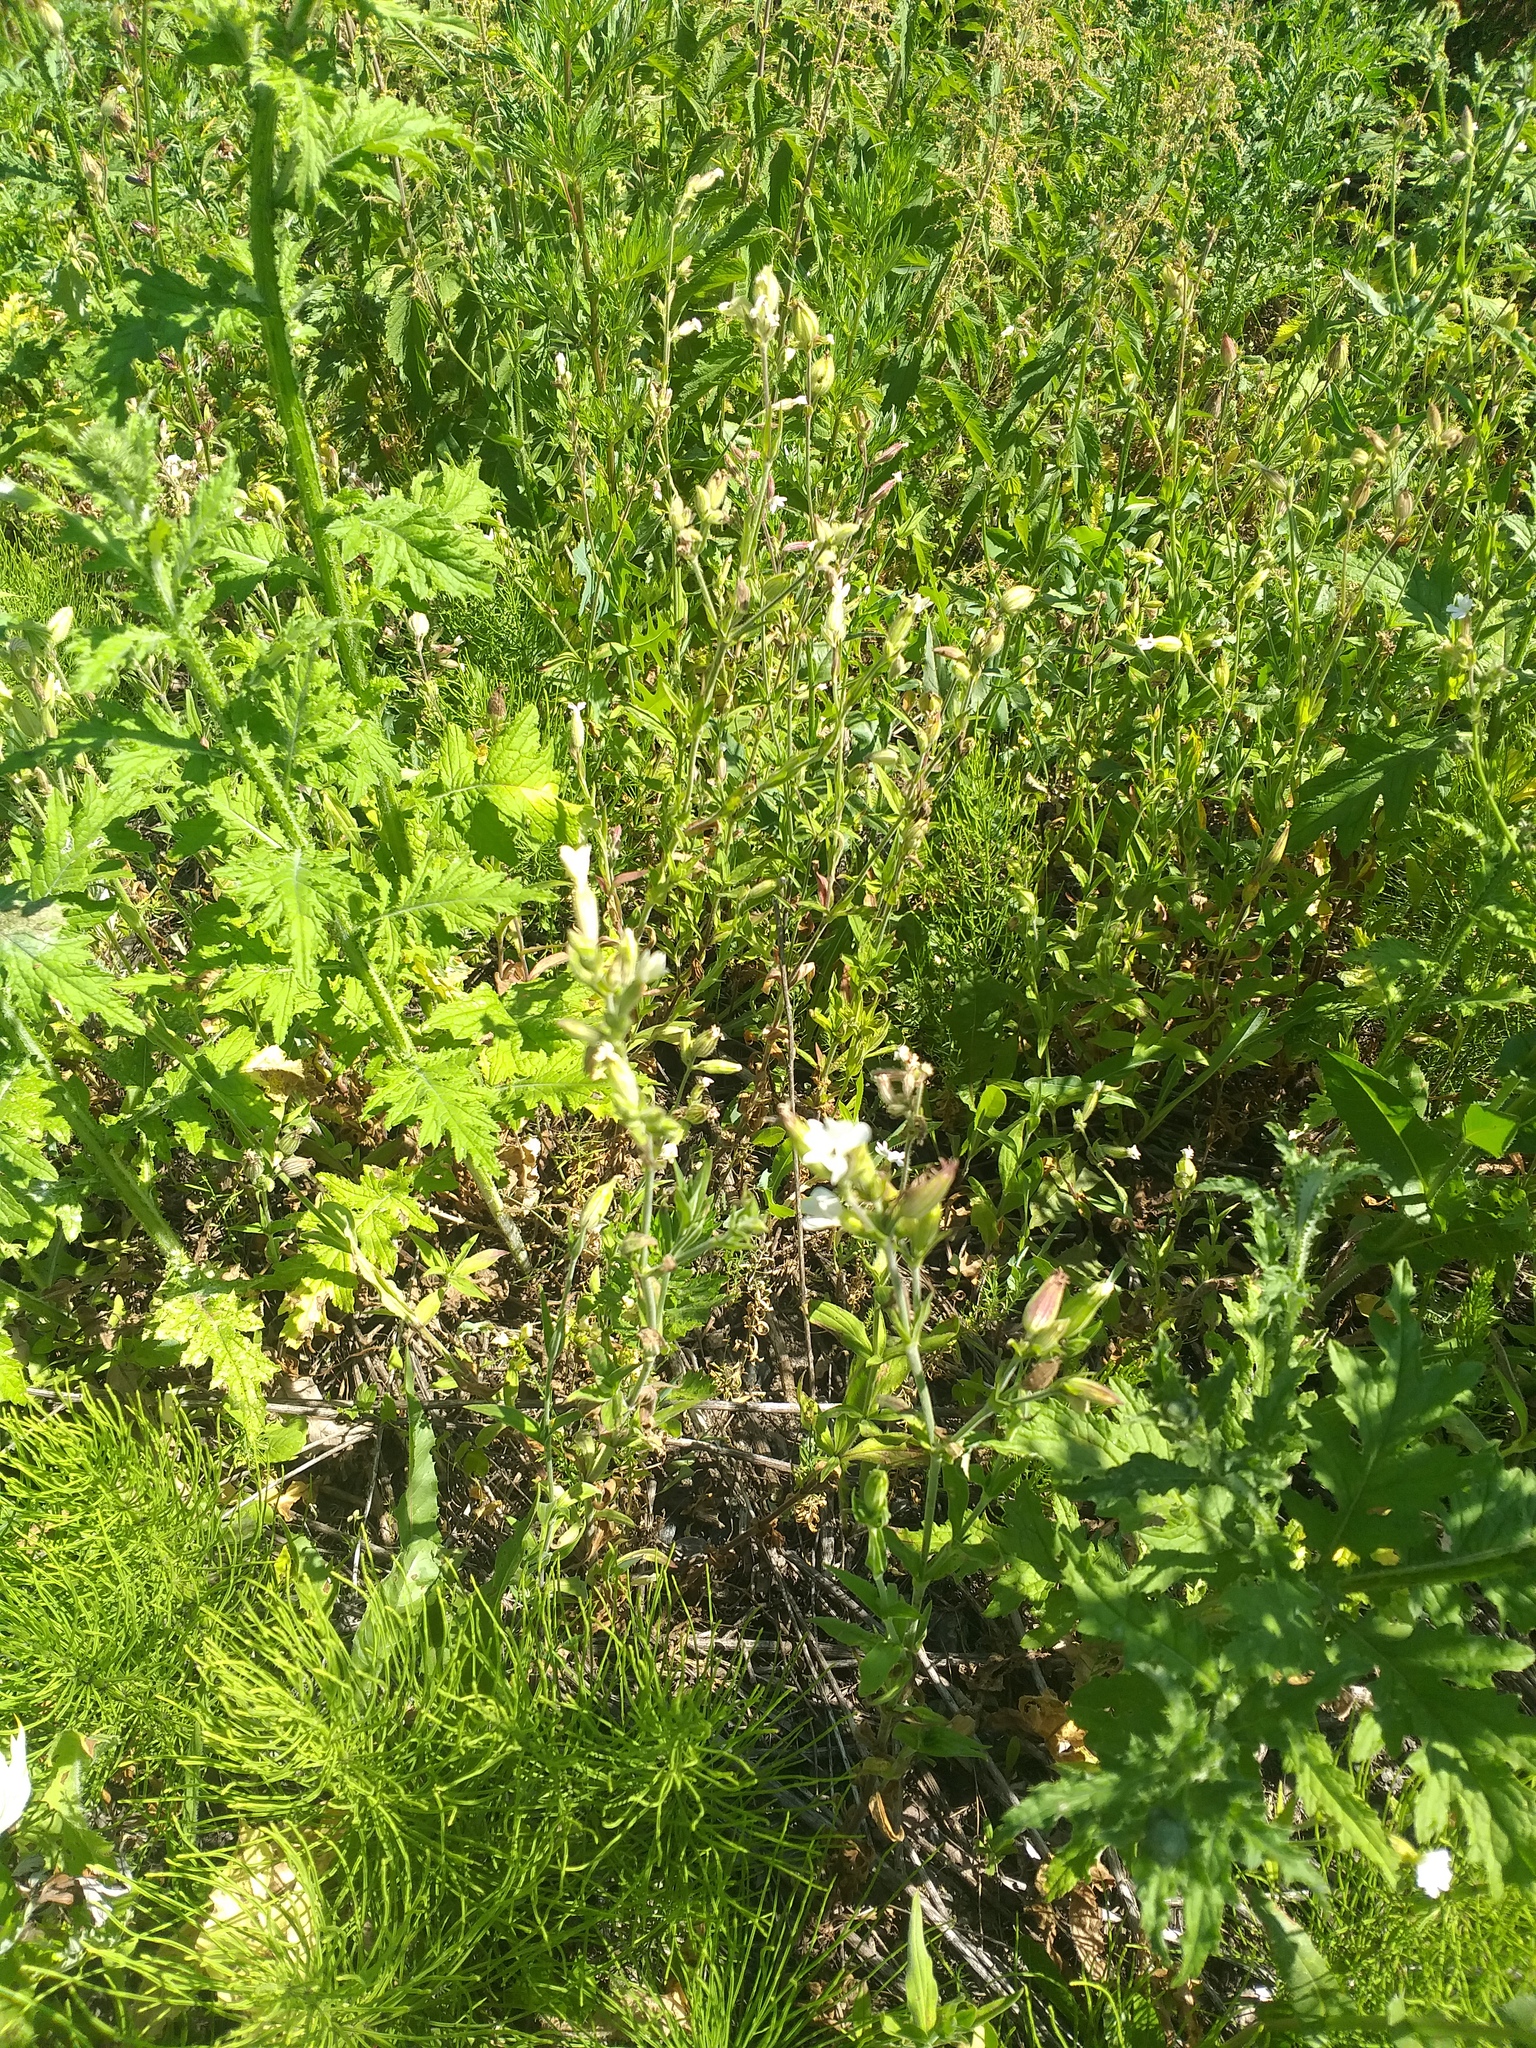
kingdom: Plantae
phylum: Tracheophyta
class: Magnoliopsida
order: Caryophyllales
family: Caryophyllaceae
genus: Silene
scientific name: Silene latifolia
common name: White campion
